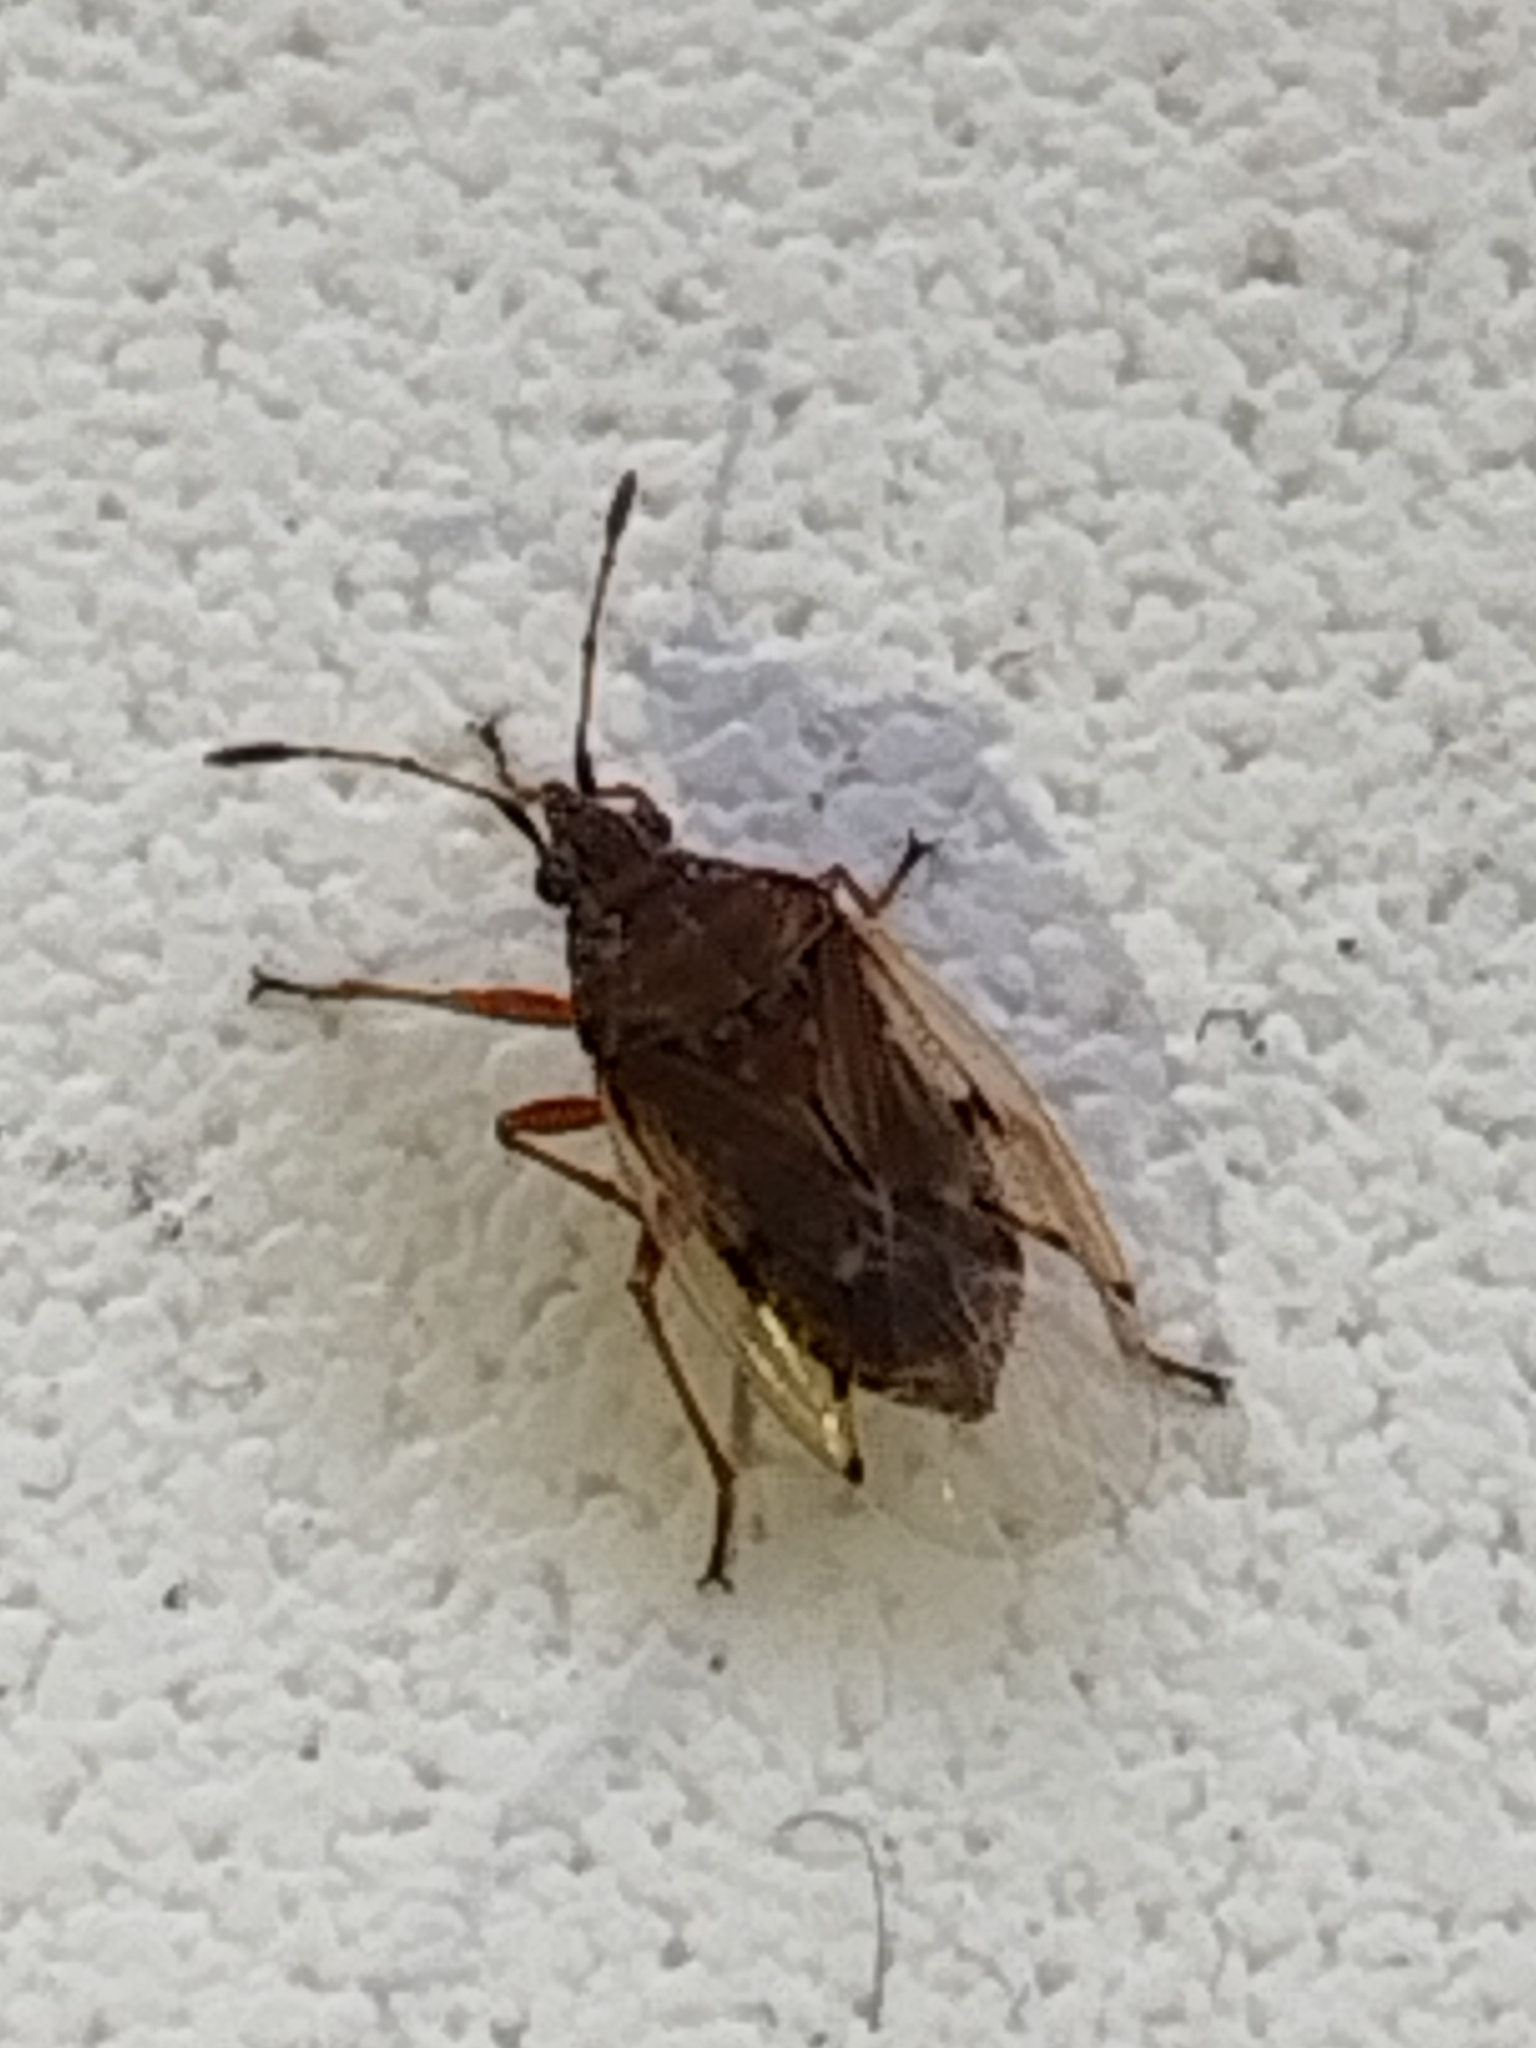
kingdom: Animalia
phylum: Arthropoda
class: Insecta
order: Hemiptera
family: Lygaeidae
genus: Kleidocerys
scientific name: Kleidocerys resedae
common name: Birch catkin bug
